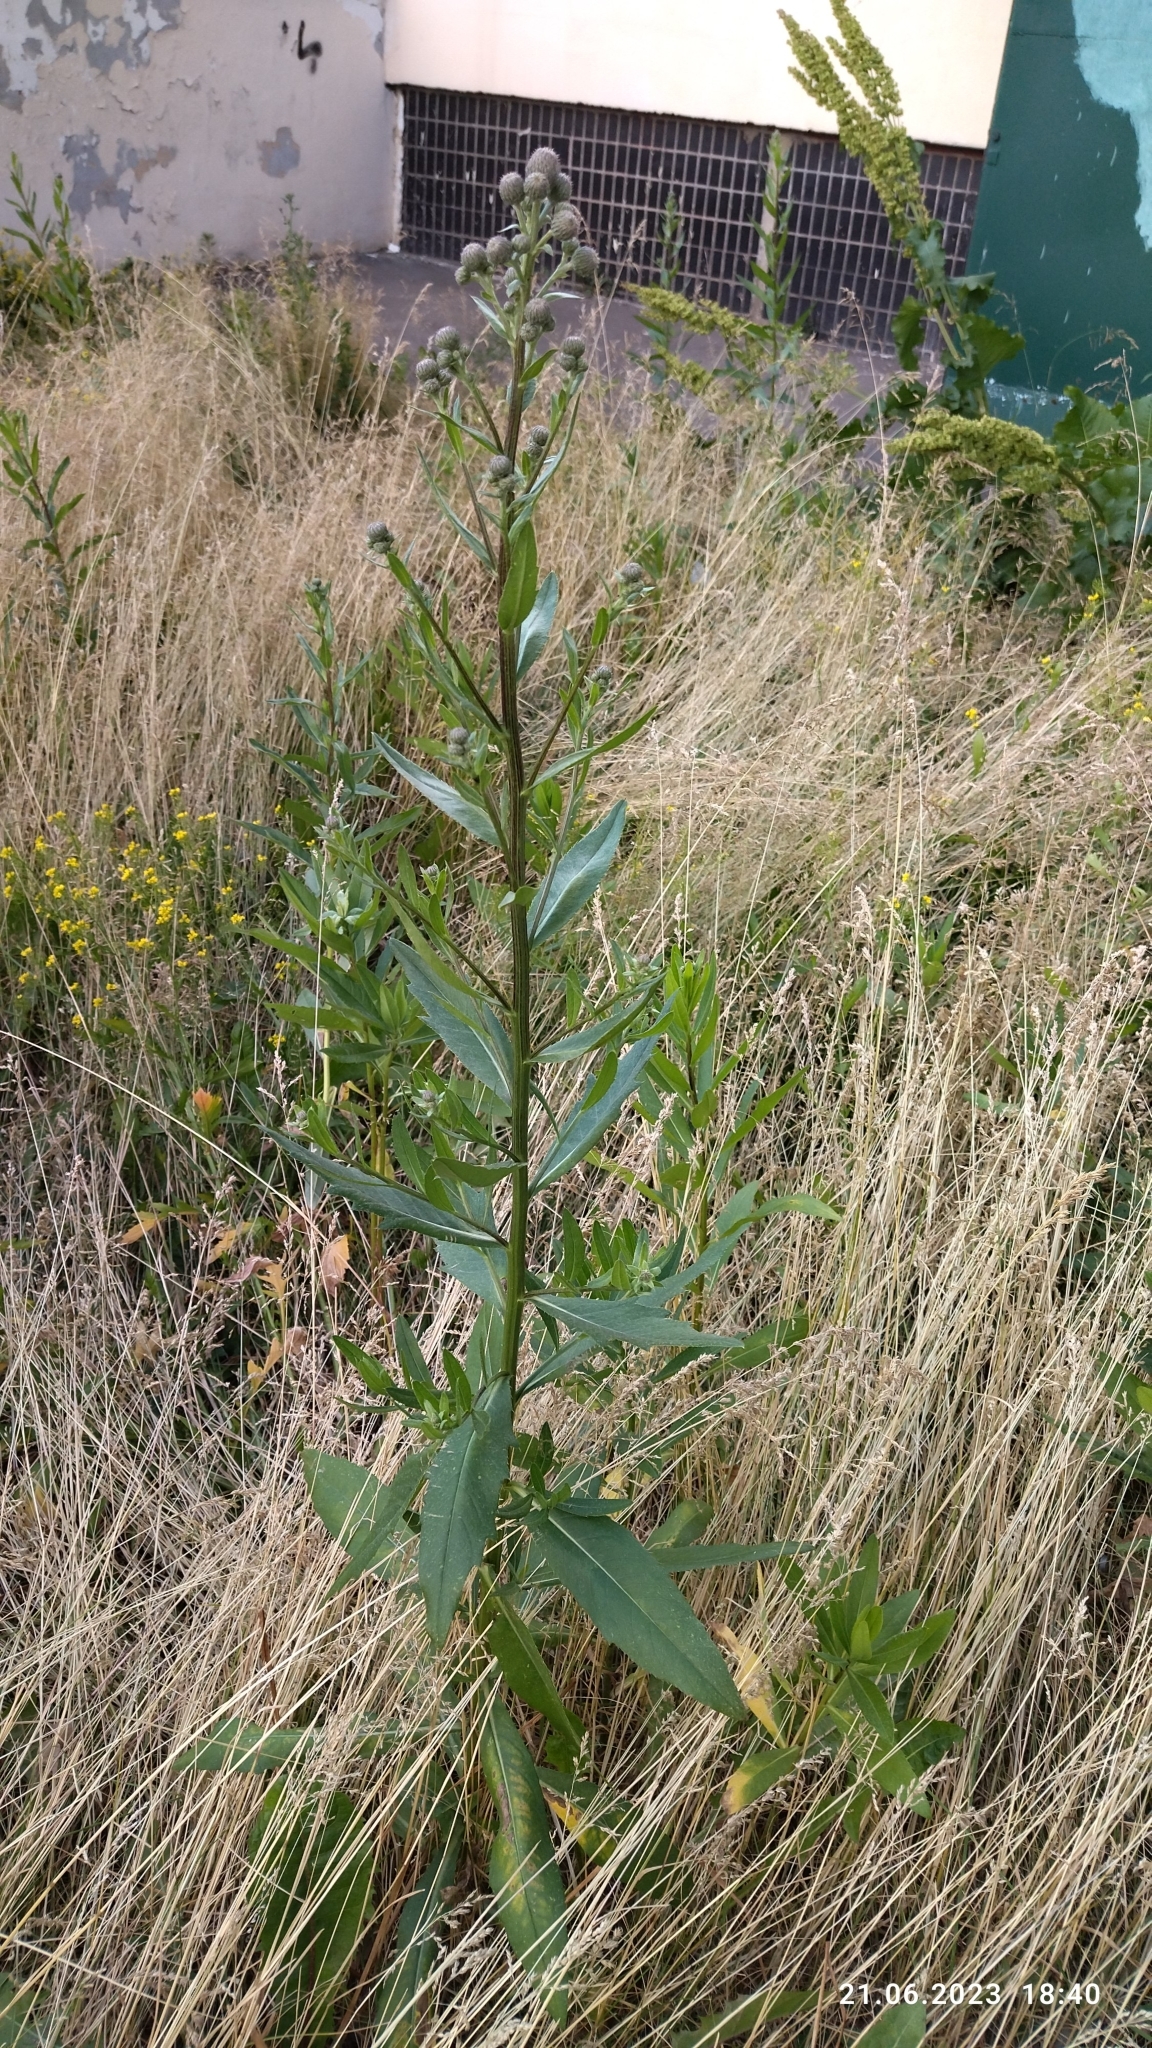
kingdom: Plantae
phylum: Tracheophyta
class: Magnoliopsida
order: Asterales
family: Asteraceae
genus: Cirsium
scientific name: Cirsium arvense
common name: Creeping thistle
